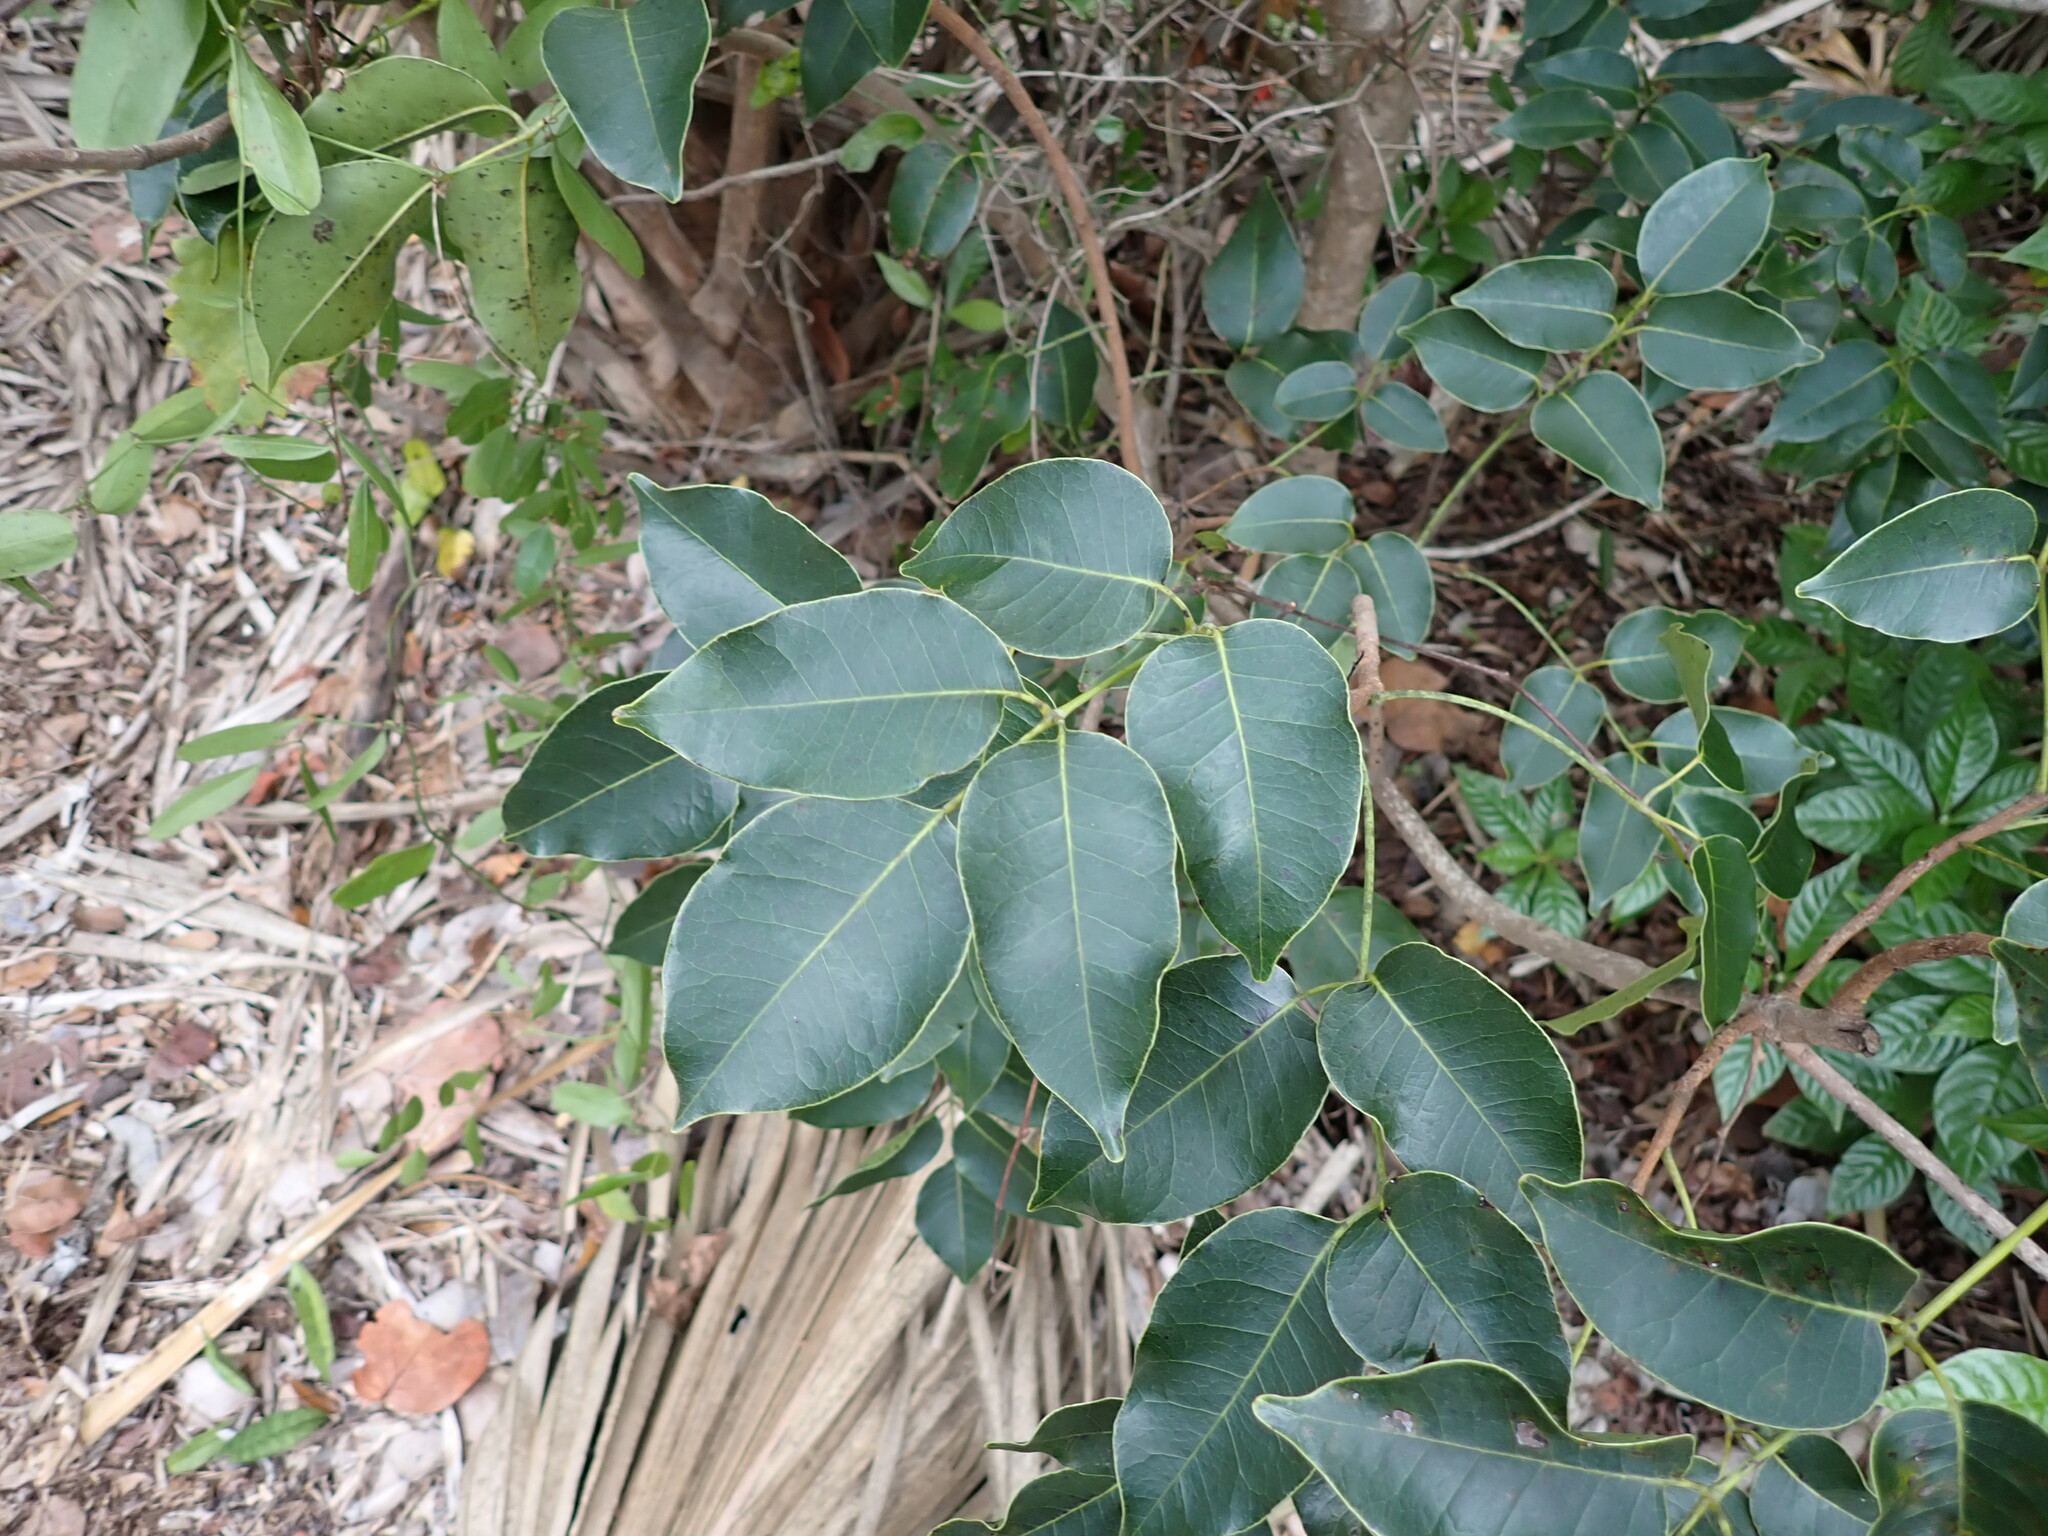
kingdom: Plantae
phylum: Tracheophyta
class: Magnoliopsida
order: Sapindales
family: Anacardiaceae
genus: Metopium
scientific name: Metopium toxiferum
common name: Florida poisontree
